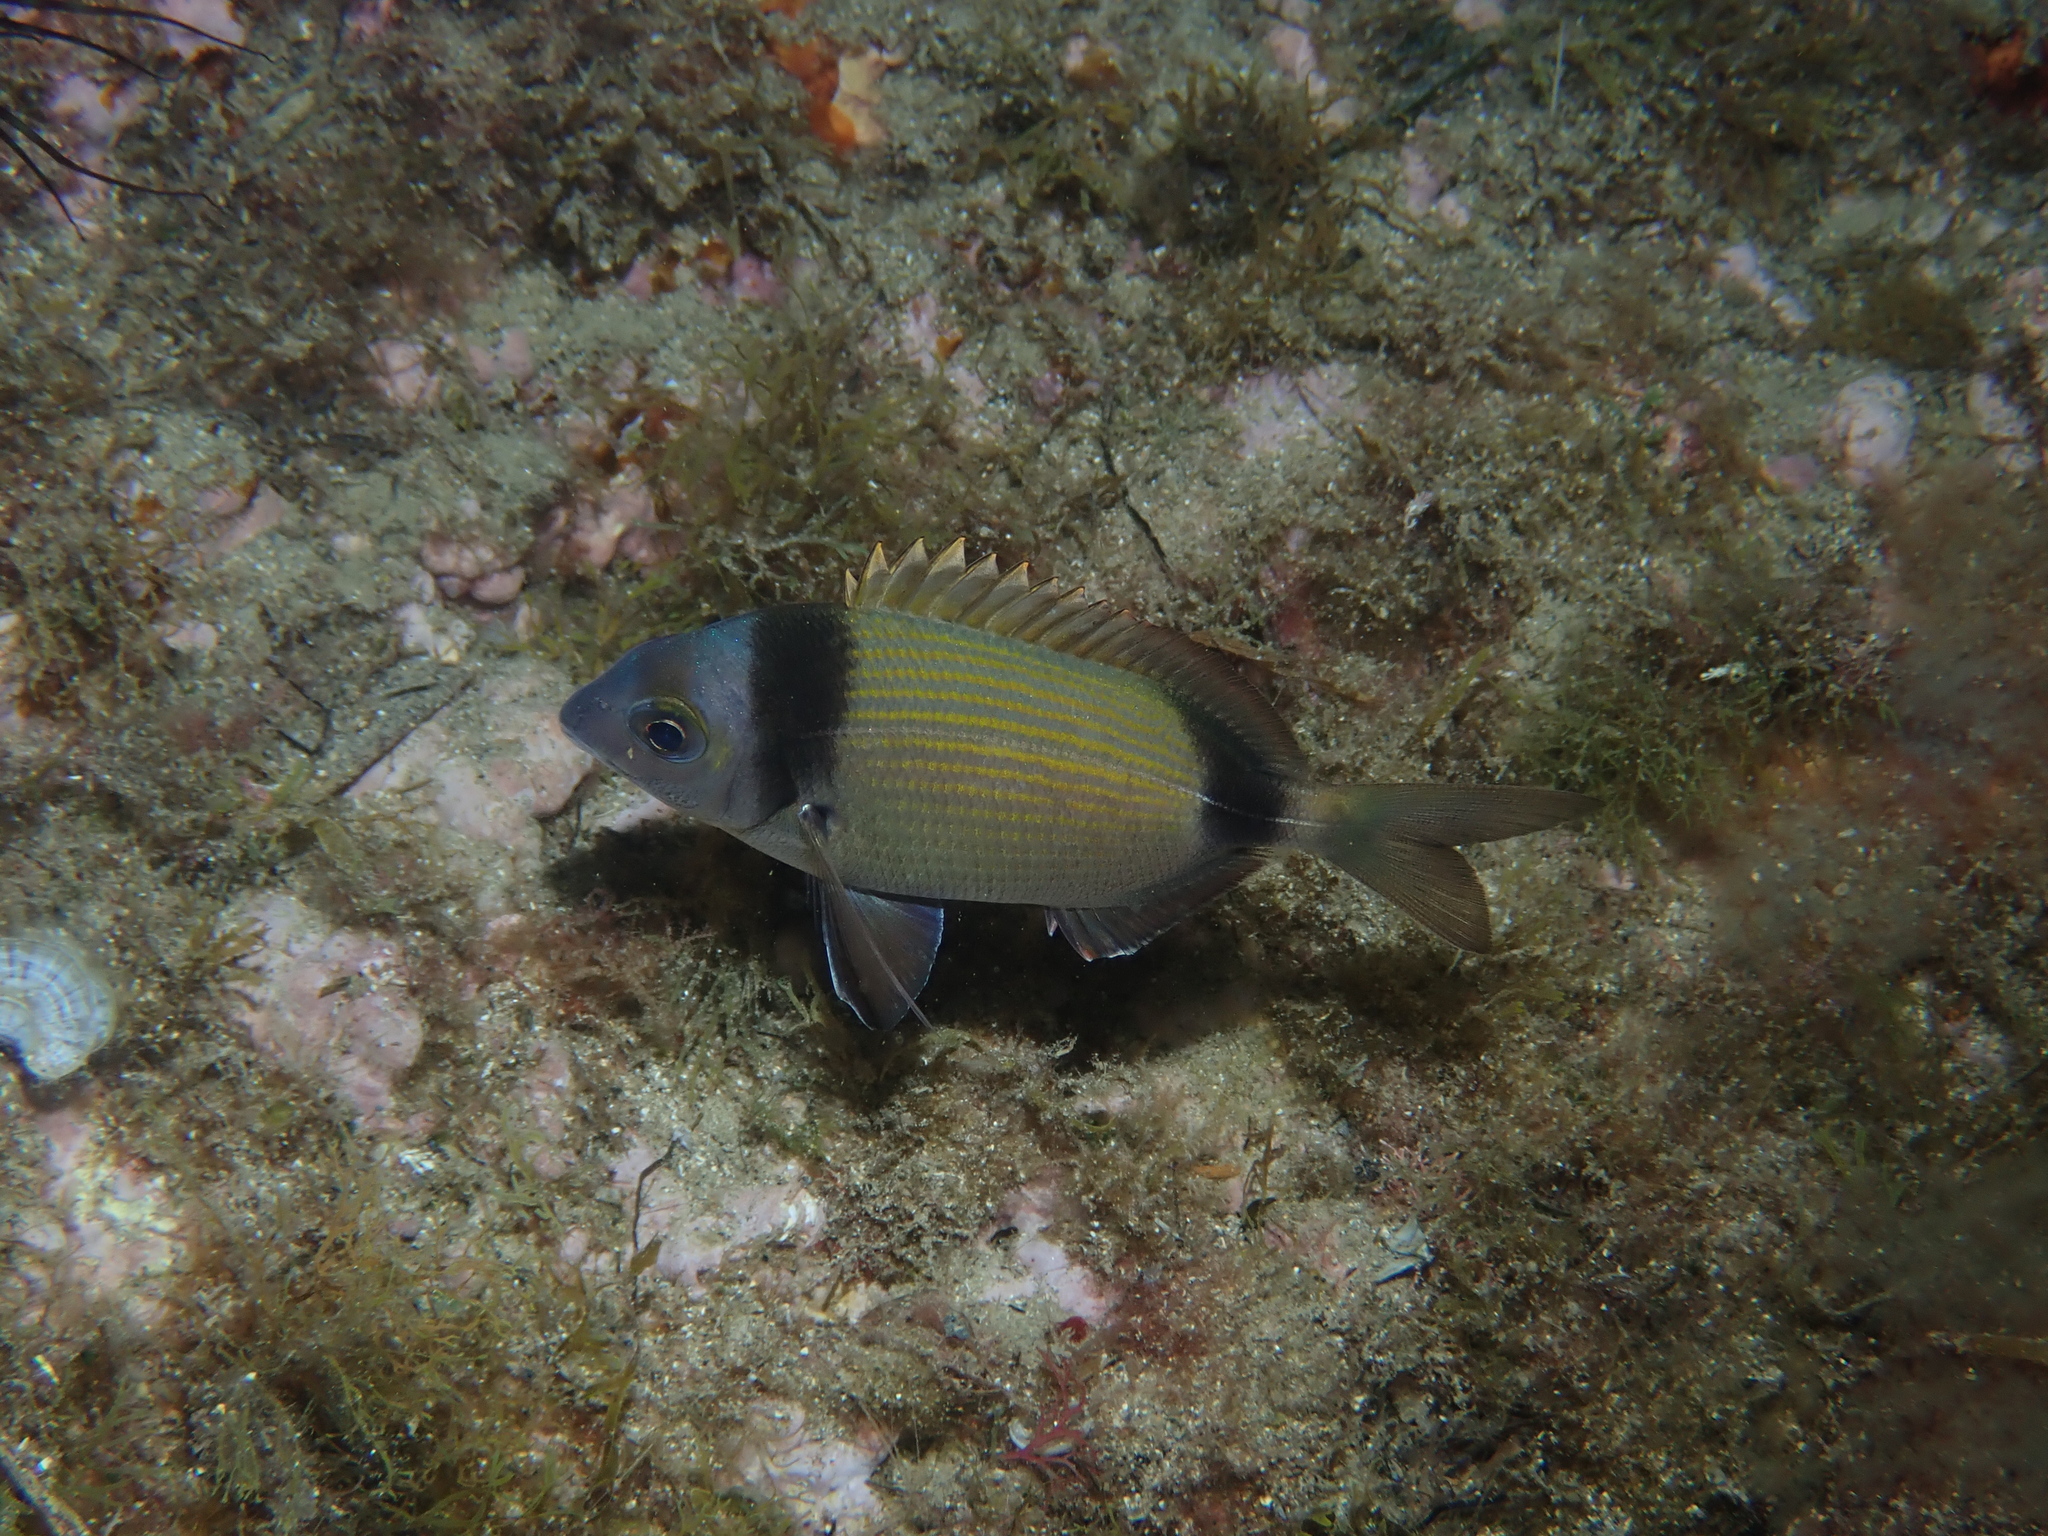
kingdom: Animalia
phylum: Chordata
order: Perciformes
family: Sparidae
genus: Diplodus
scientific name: Diplodus vulgaris
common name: Common two-banded seabream
